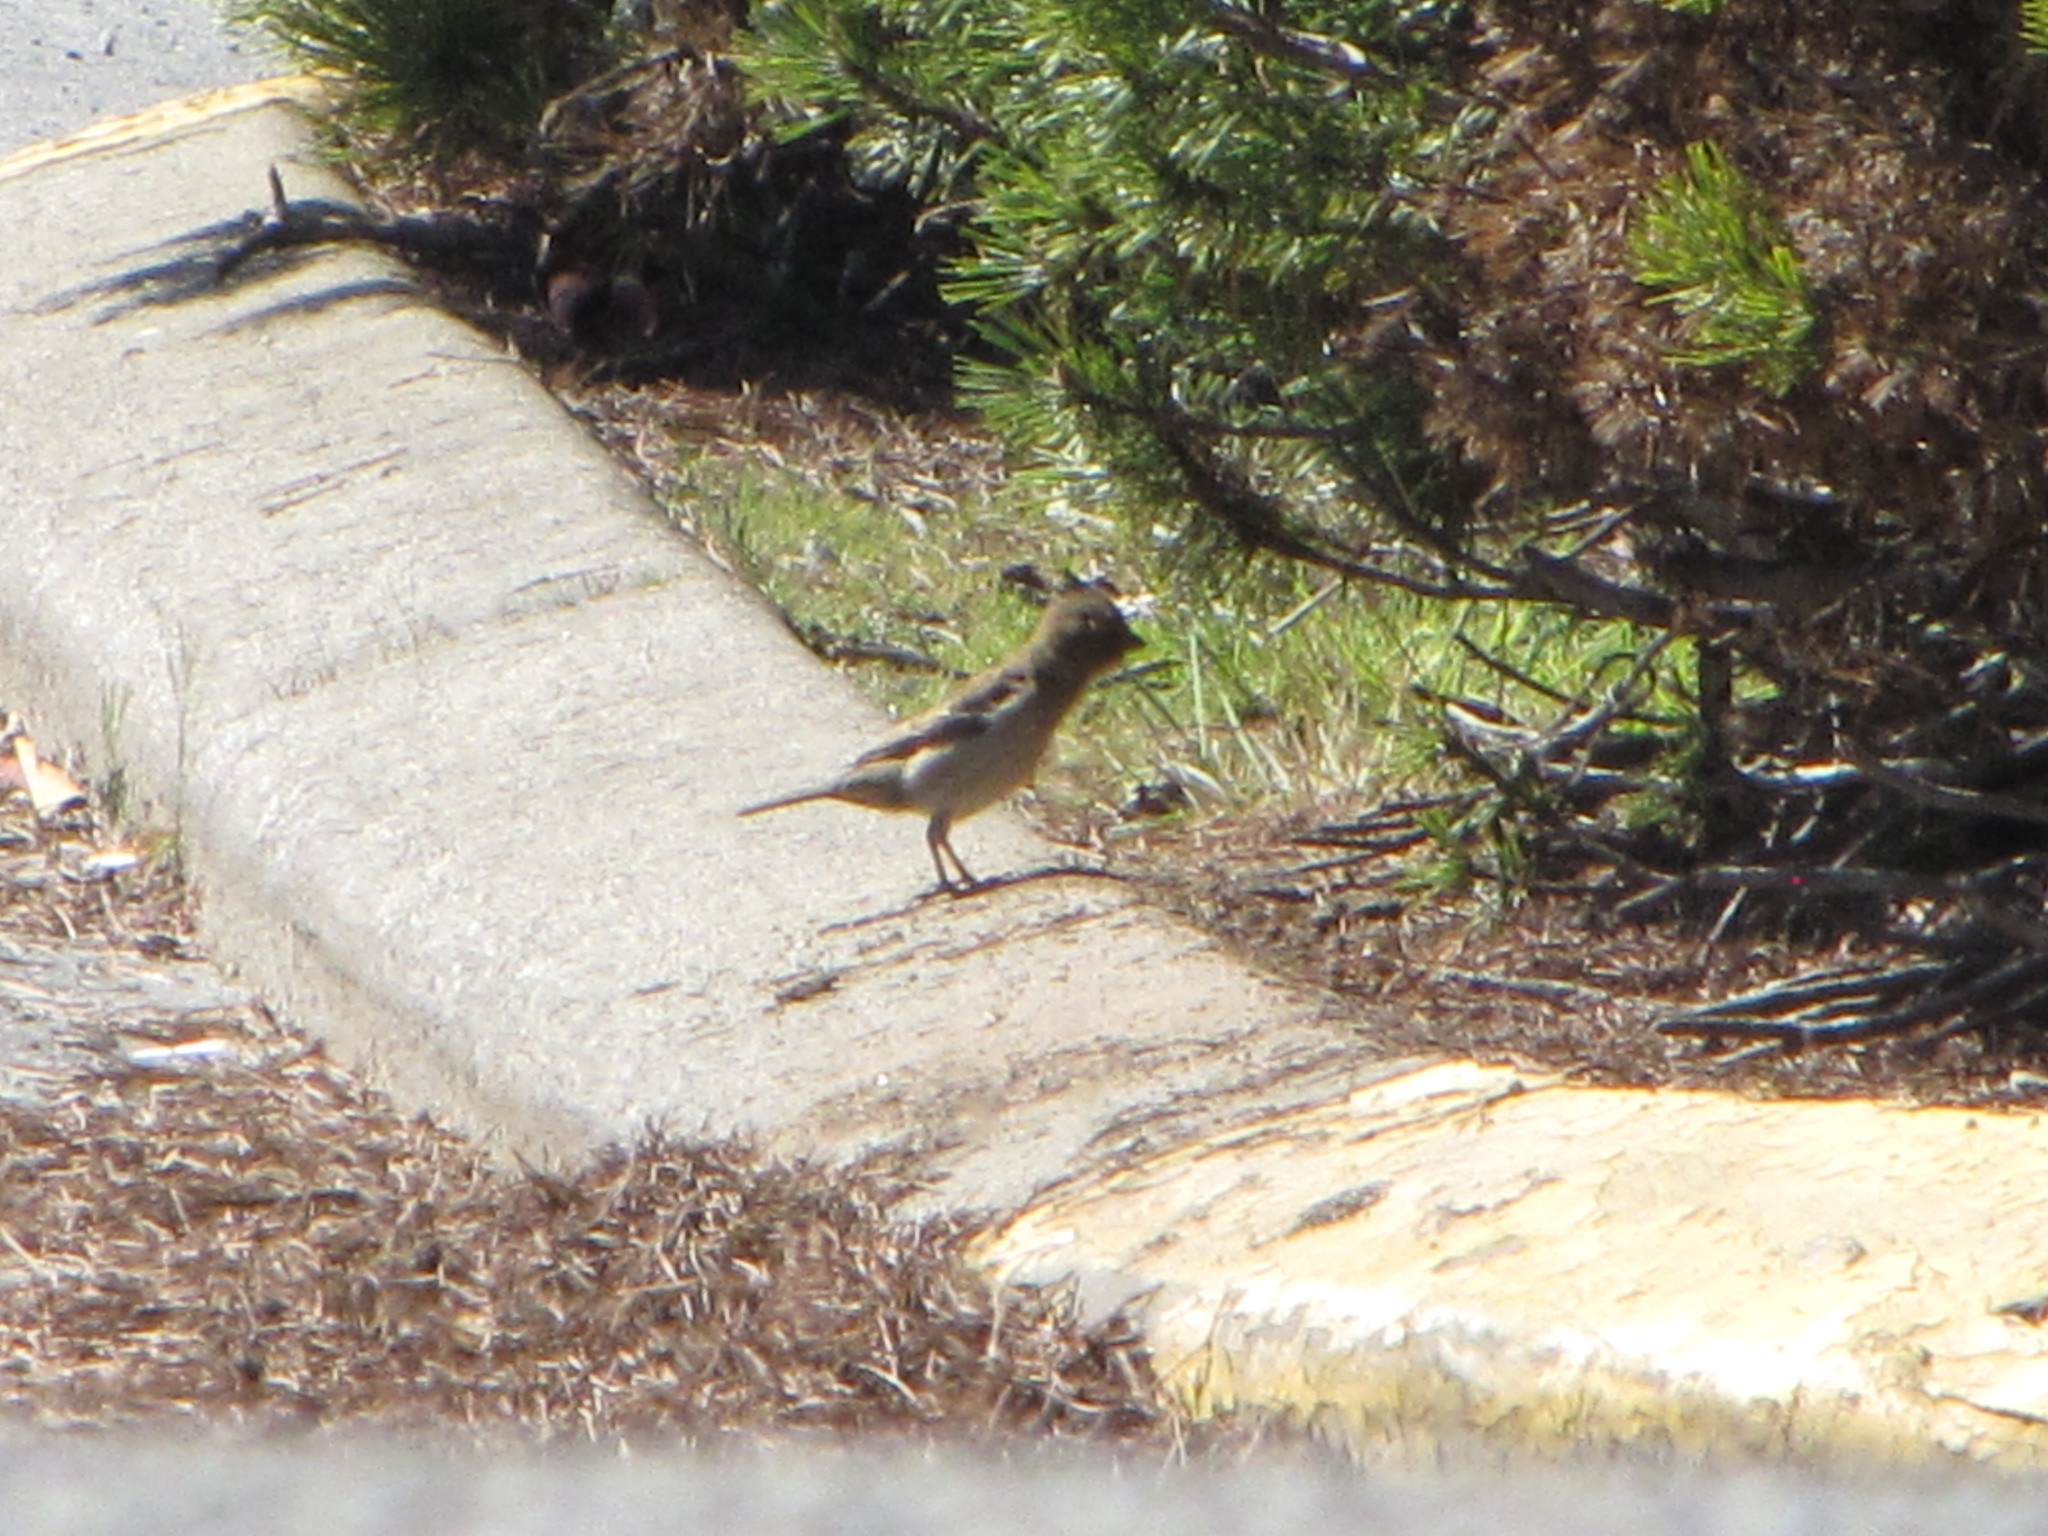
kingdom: Animalia
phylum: Chordata
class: Aves
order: Passeriformes
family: Passeridae
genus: Passer
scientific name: Passer domesticus
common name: House sparrow
